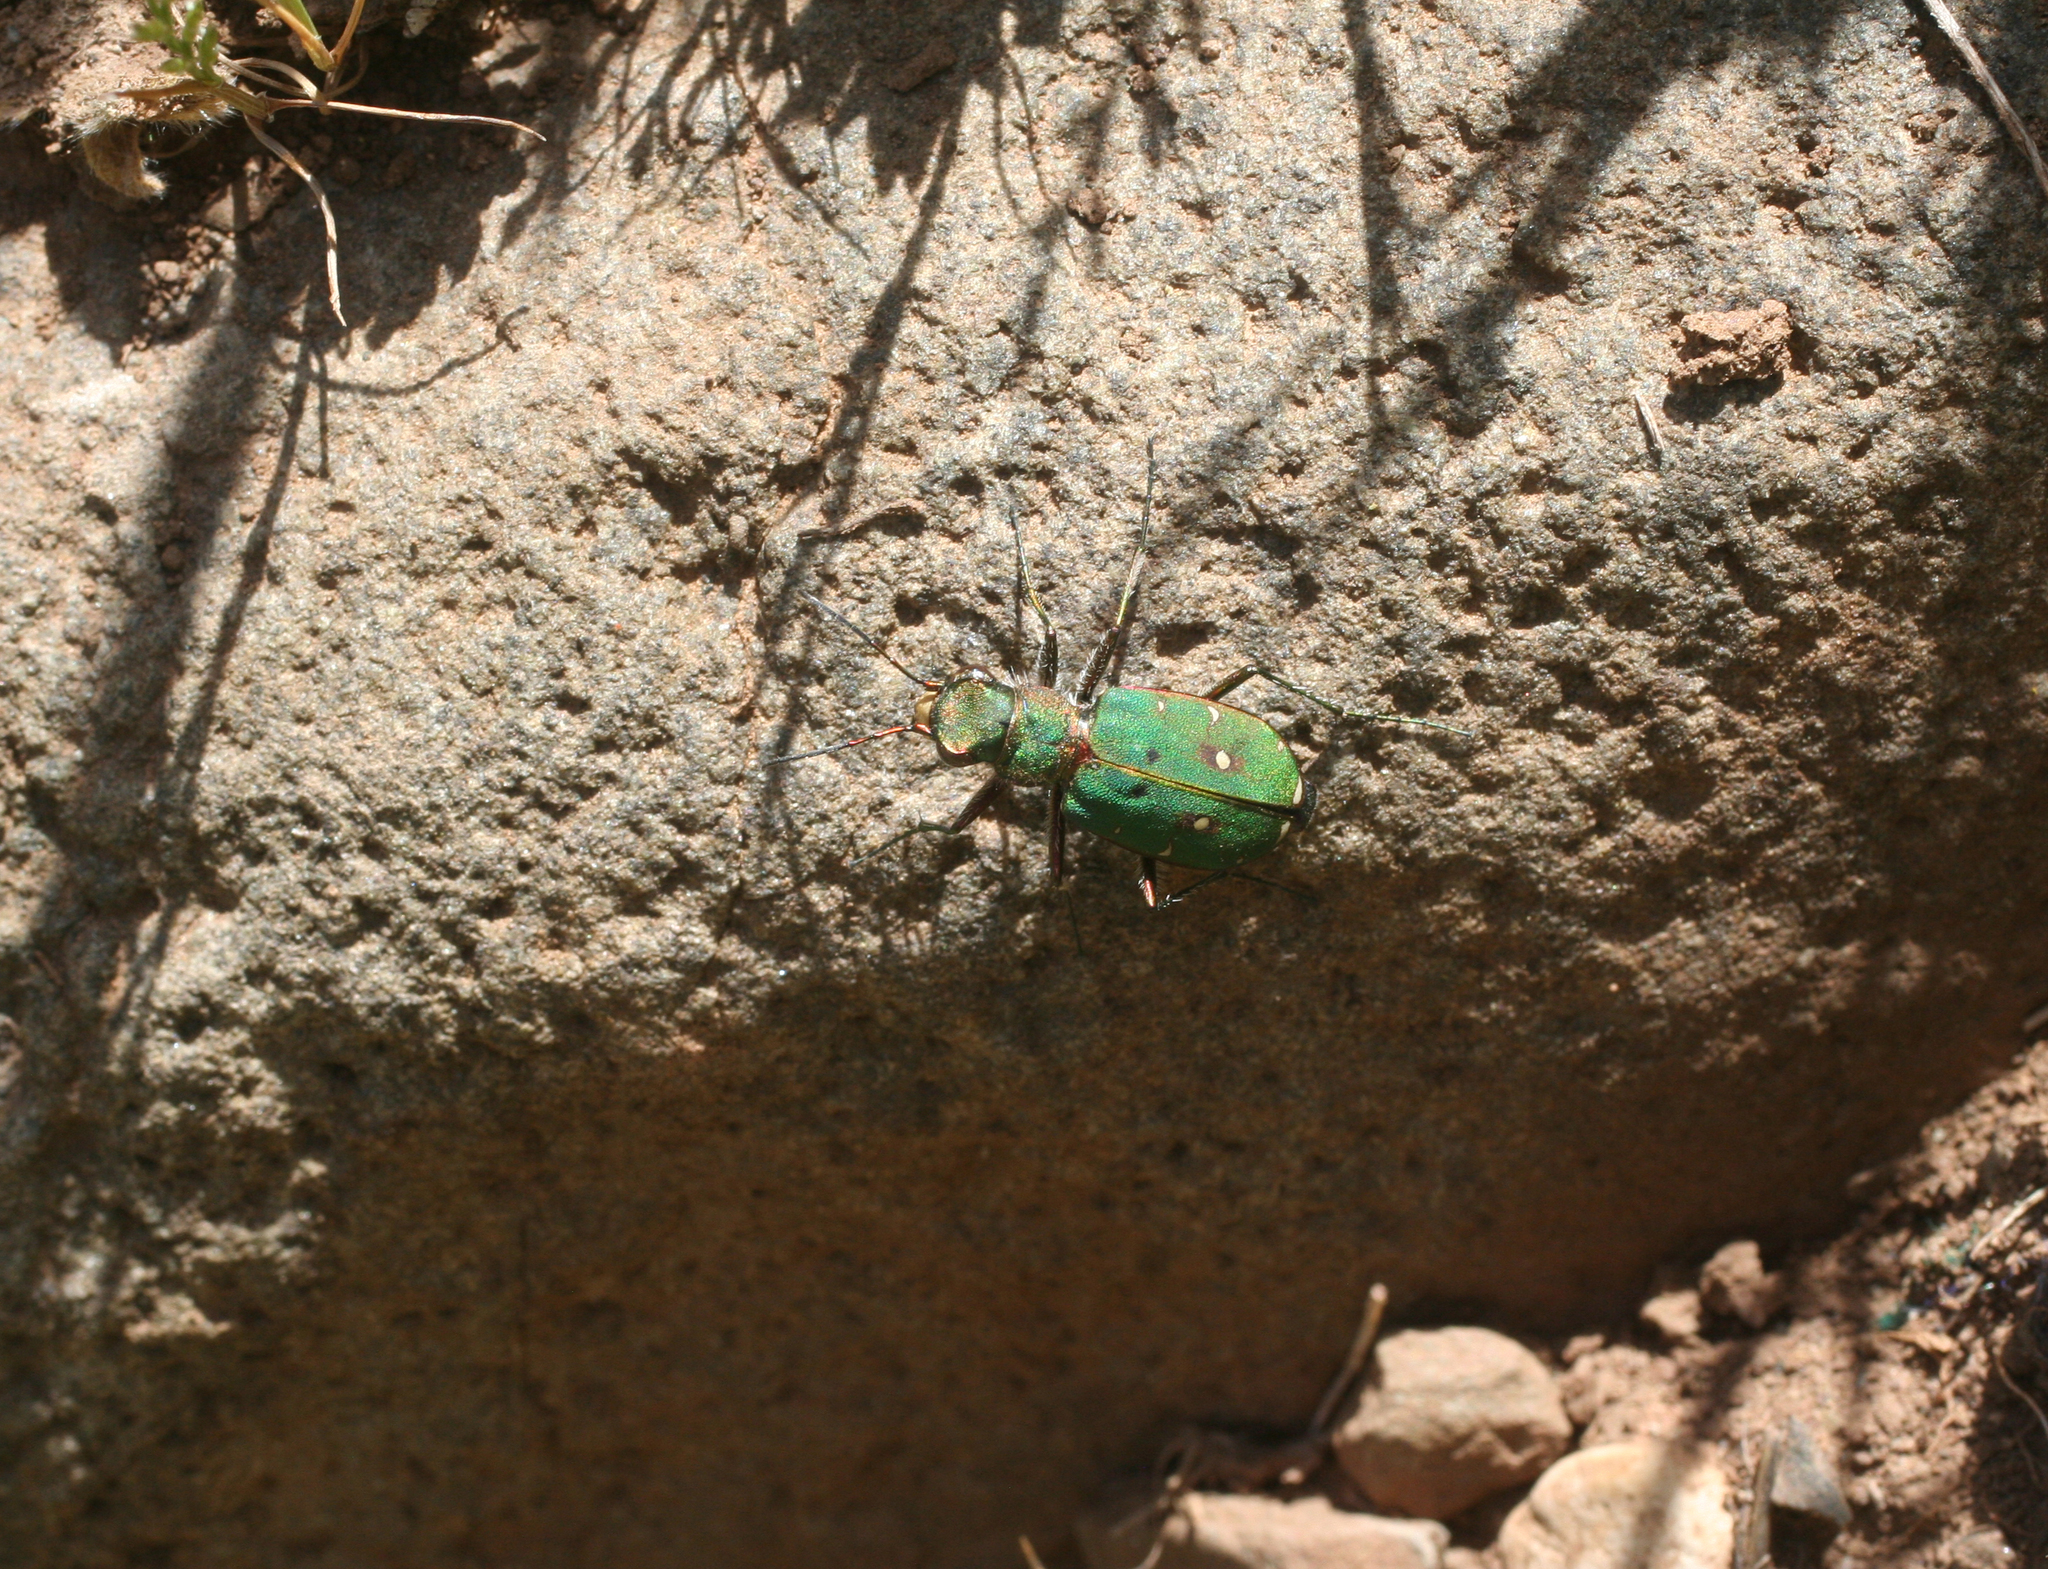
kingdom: Animalia
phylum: Arthropoda
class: Insecta
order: Coleoptera
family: Carabidae
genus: Cicindela
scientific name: Cicindela campestris
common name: Common tiger beetle
